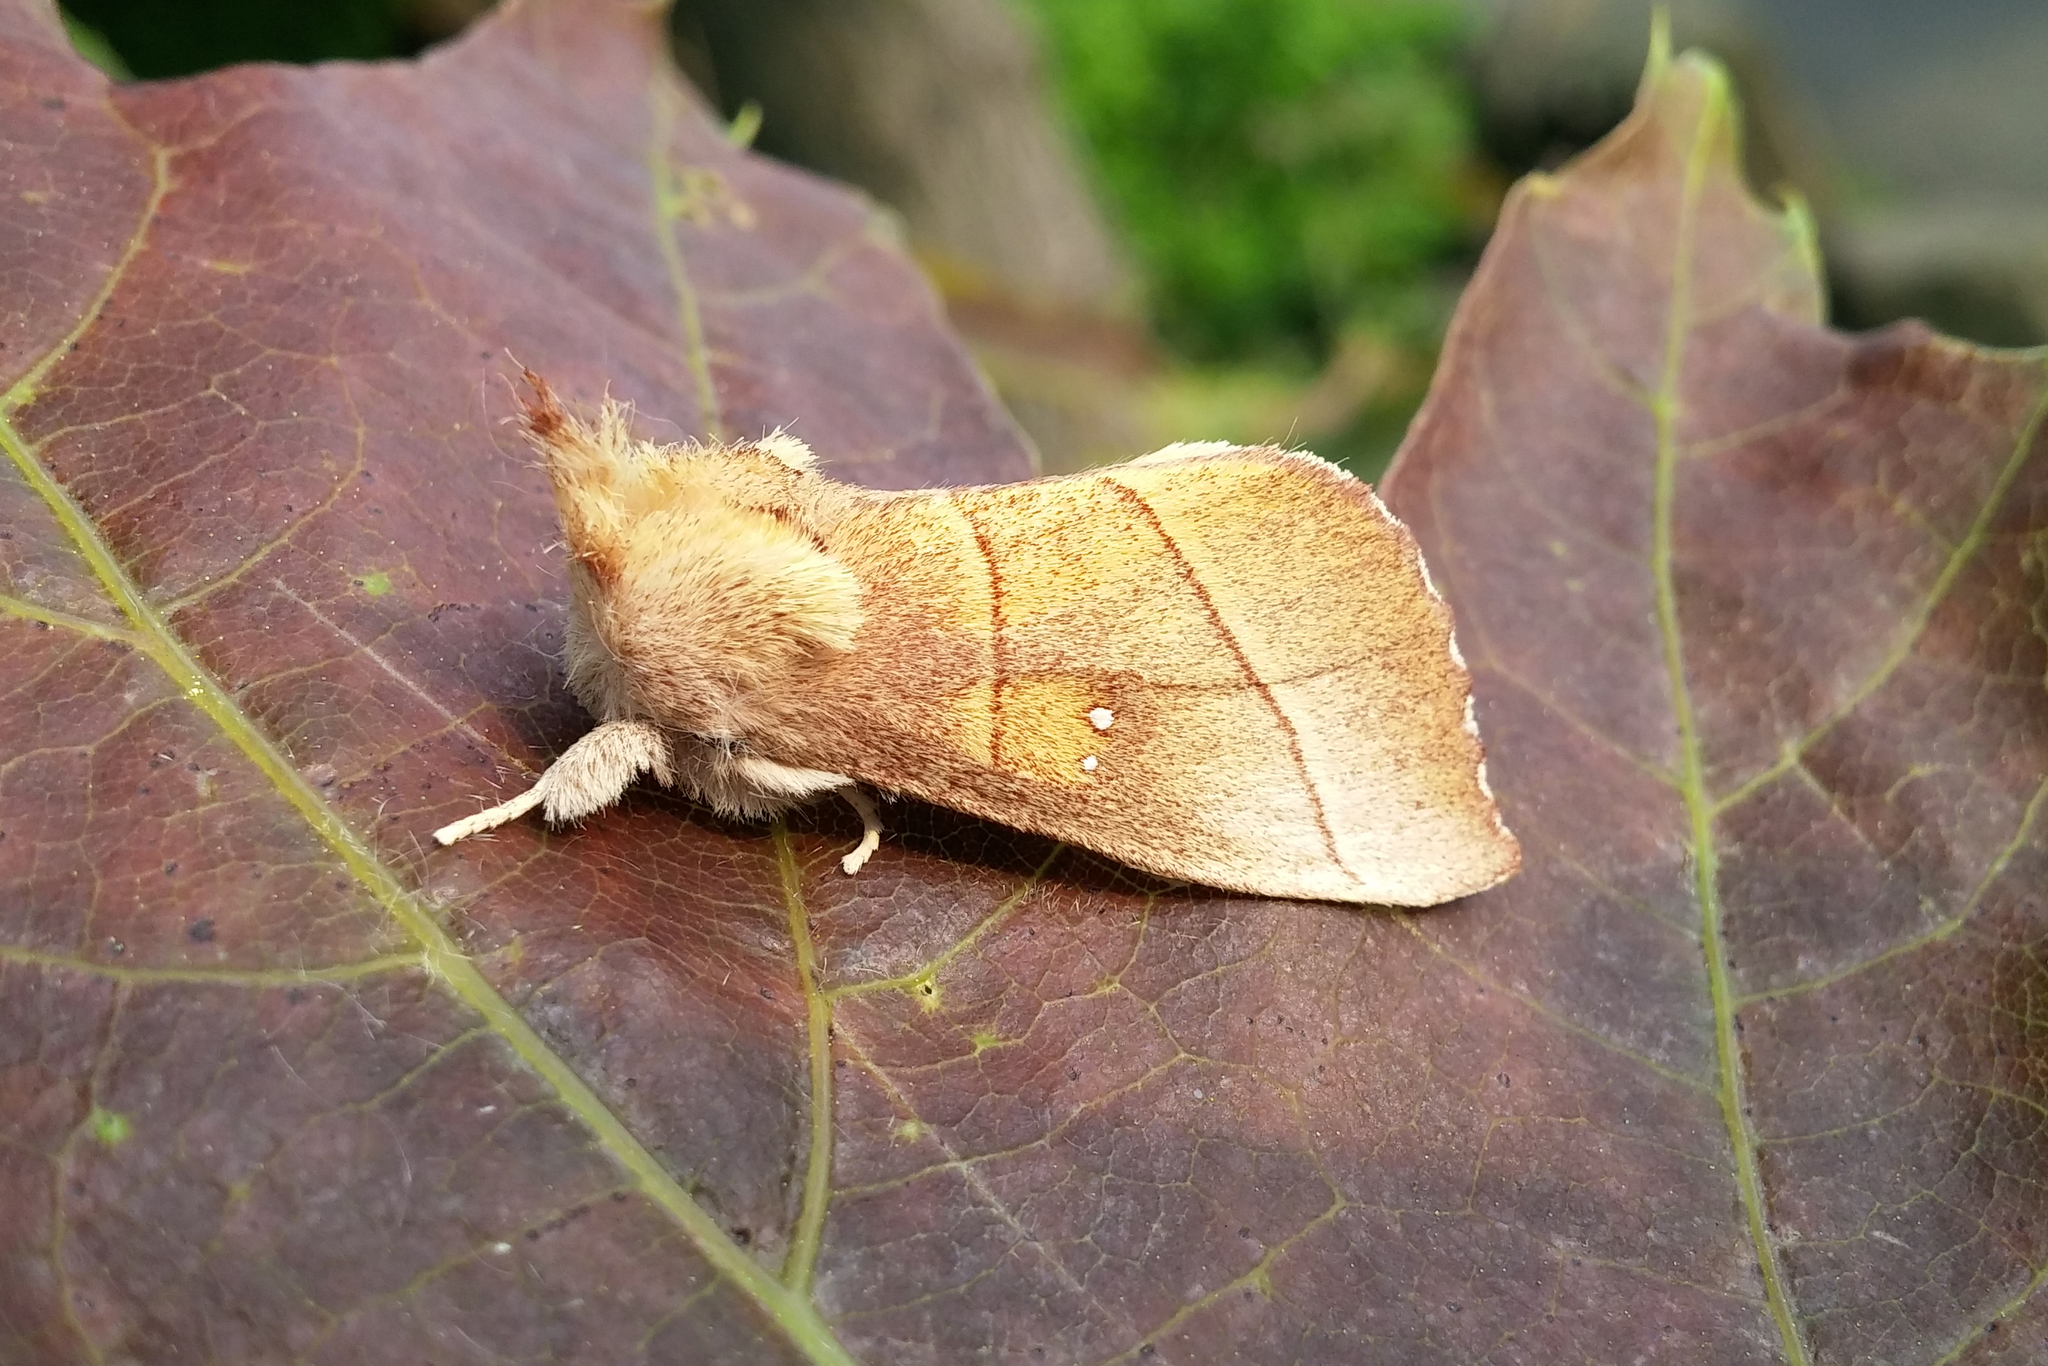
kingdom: Animalia
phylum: Arthropoda
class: Insecta
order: Lepidoptera
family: Notodontidae
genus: Nadata
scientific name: Nadata gibbosa
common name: White-dotted prominent
